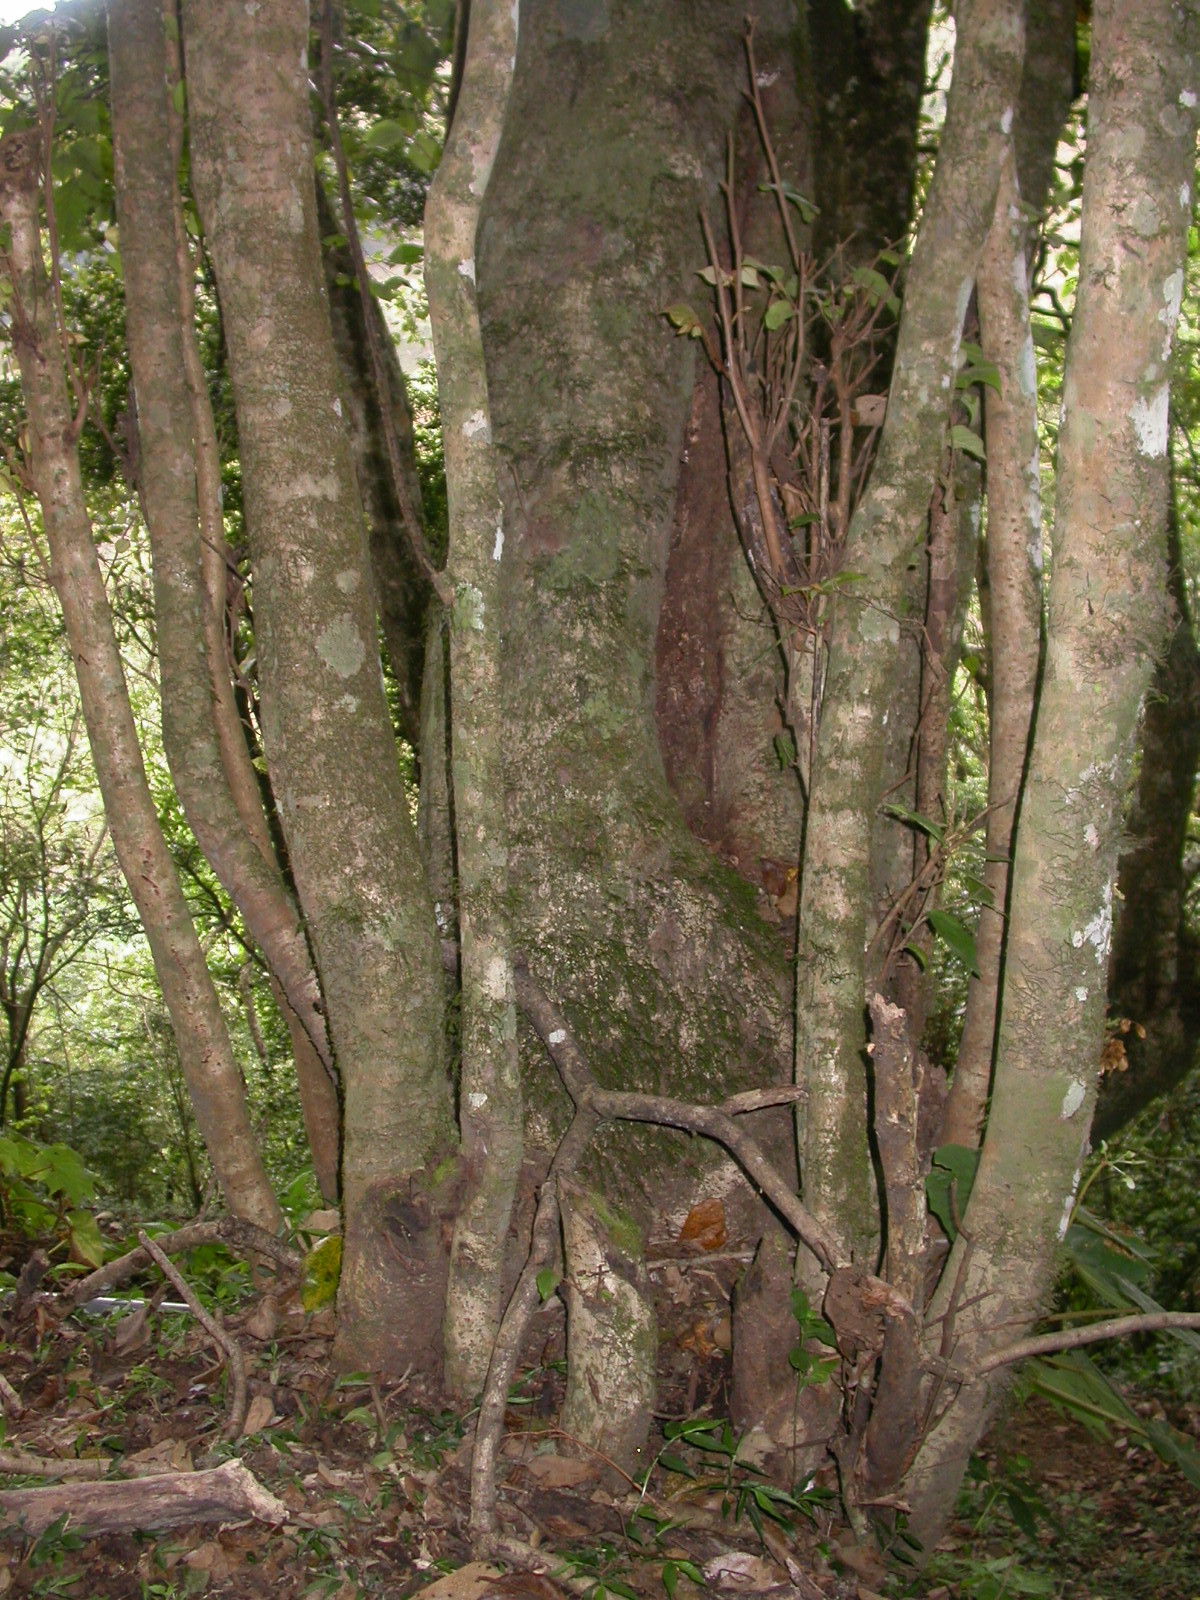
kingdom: Plantae
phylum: Tracheophyta
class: Magnoliopsida
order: Saxifragales
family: Hamamelidaceae
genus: Molinadendron
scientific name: Molinadendron guatemalense
